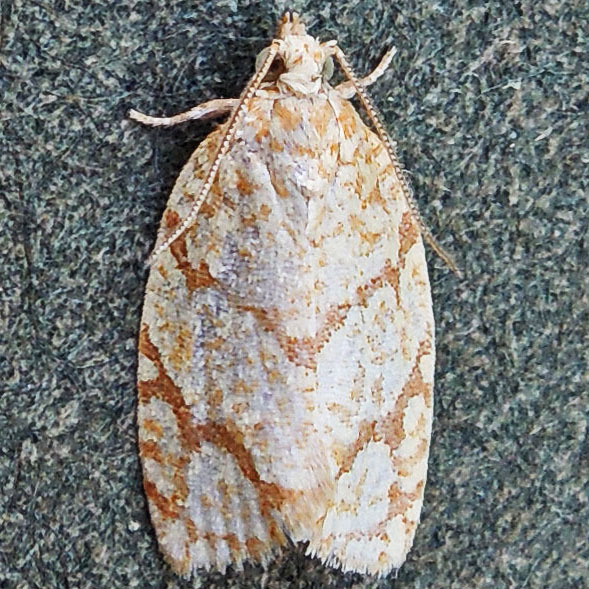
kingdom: Animalia
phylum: Arthropoda
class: Insecta
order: Lepidoptera
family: Tortricidae
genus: Argyrotaenia
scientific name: Argyrotaenia quercifoliana
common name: Yellow-winged oak leafroller moth
